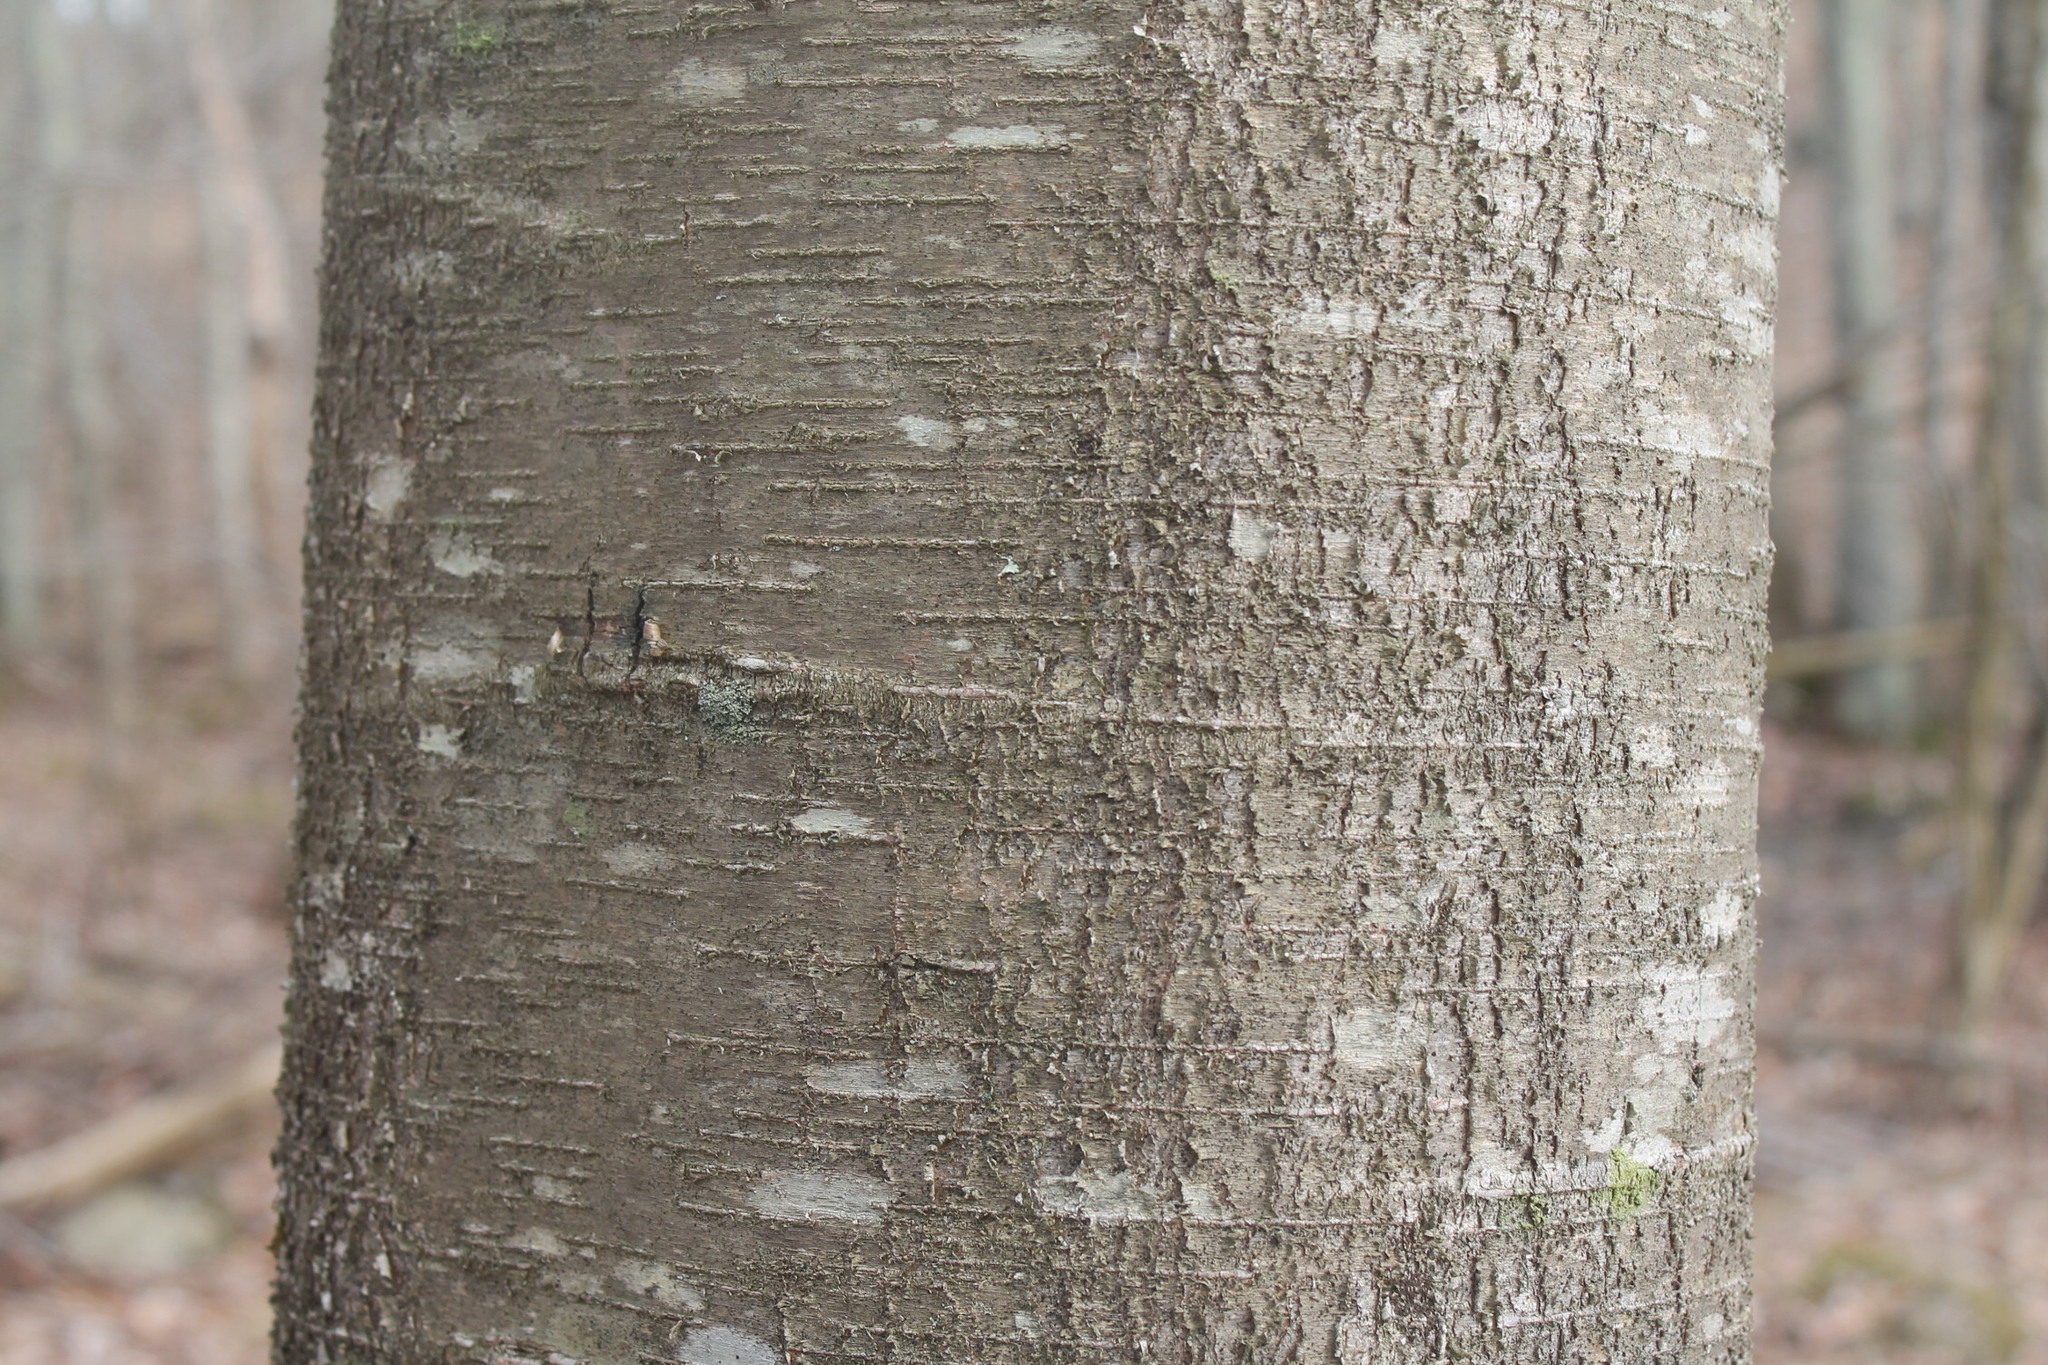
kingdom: Plantae
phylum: Tracheophyta
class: Magnoliopsida
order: Fagales
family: Betulaceae
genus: Betula
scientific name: Betula lenta
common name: Black birch
